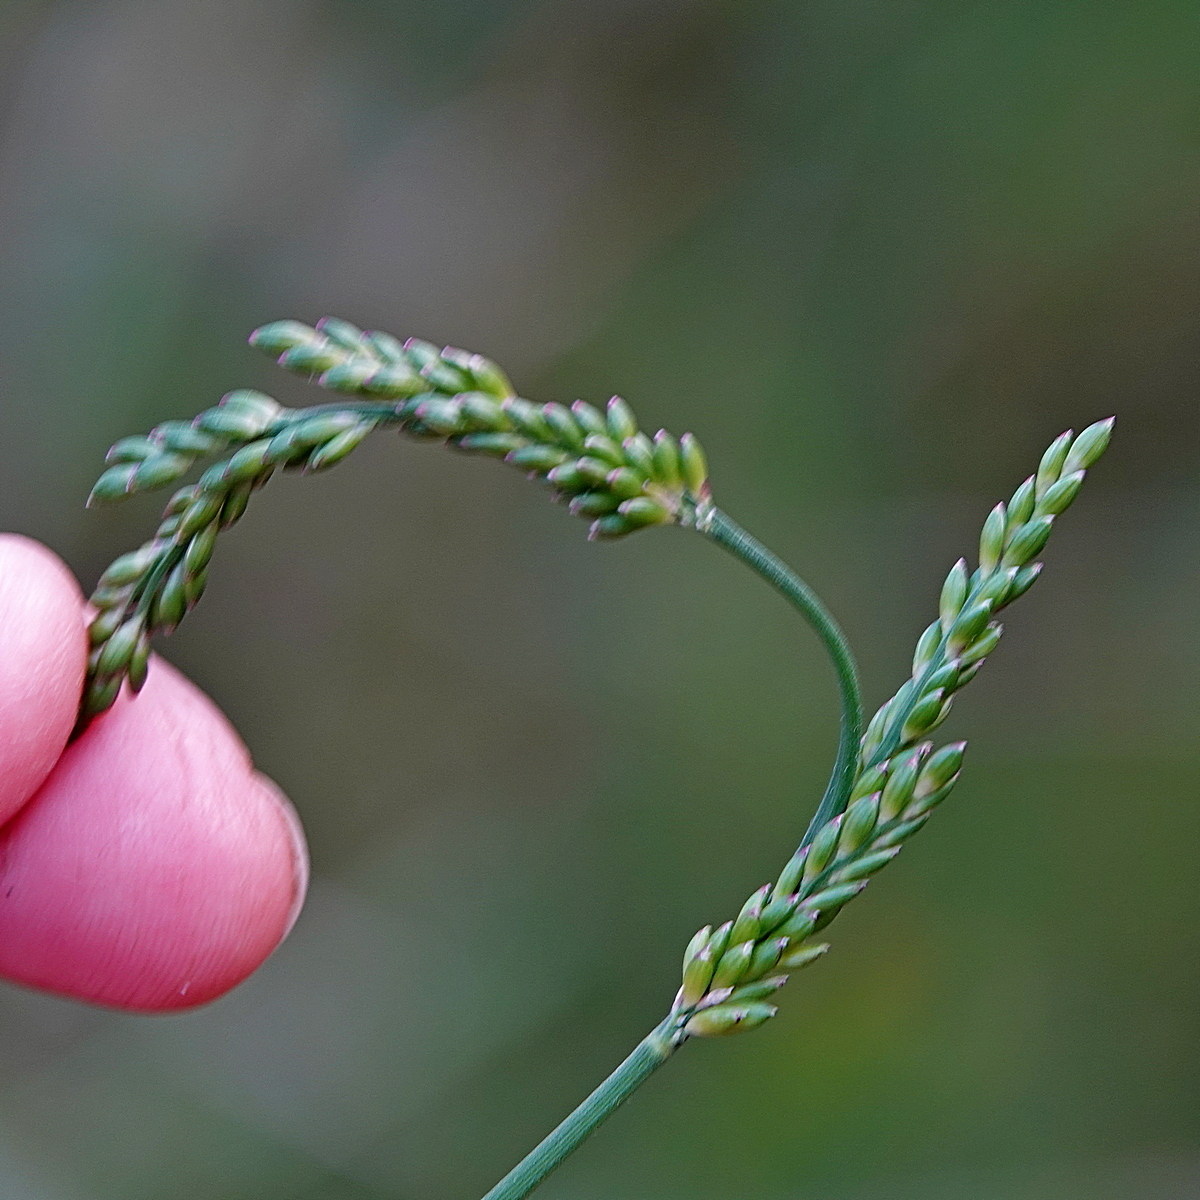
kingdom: Plantae
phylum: Tracheophyta
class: Liliopsida
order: Poales
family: Poaceae
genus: Entolasia
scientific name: Entolasia marginata
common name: Australian panicgrass
